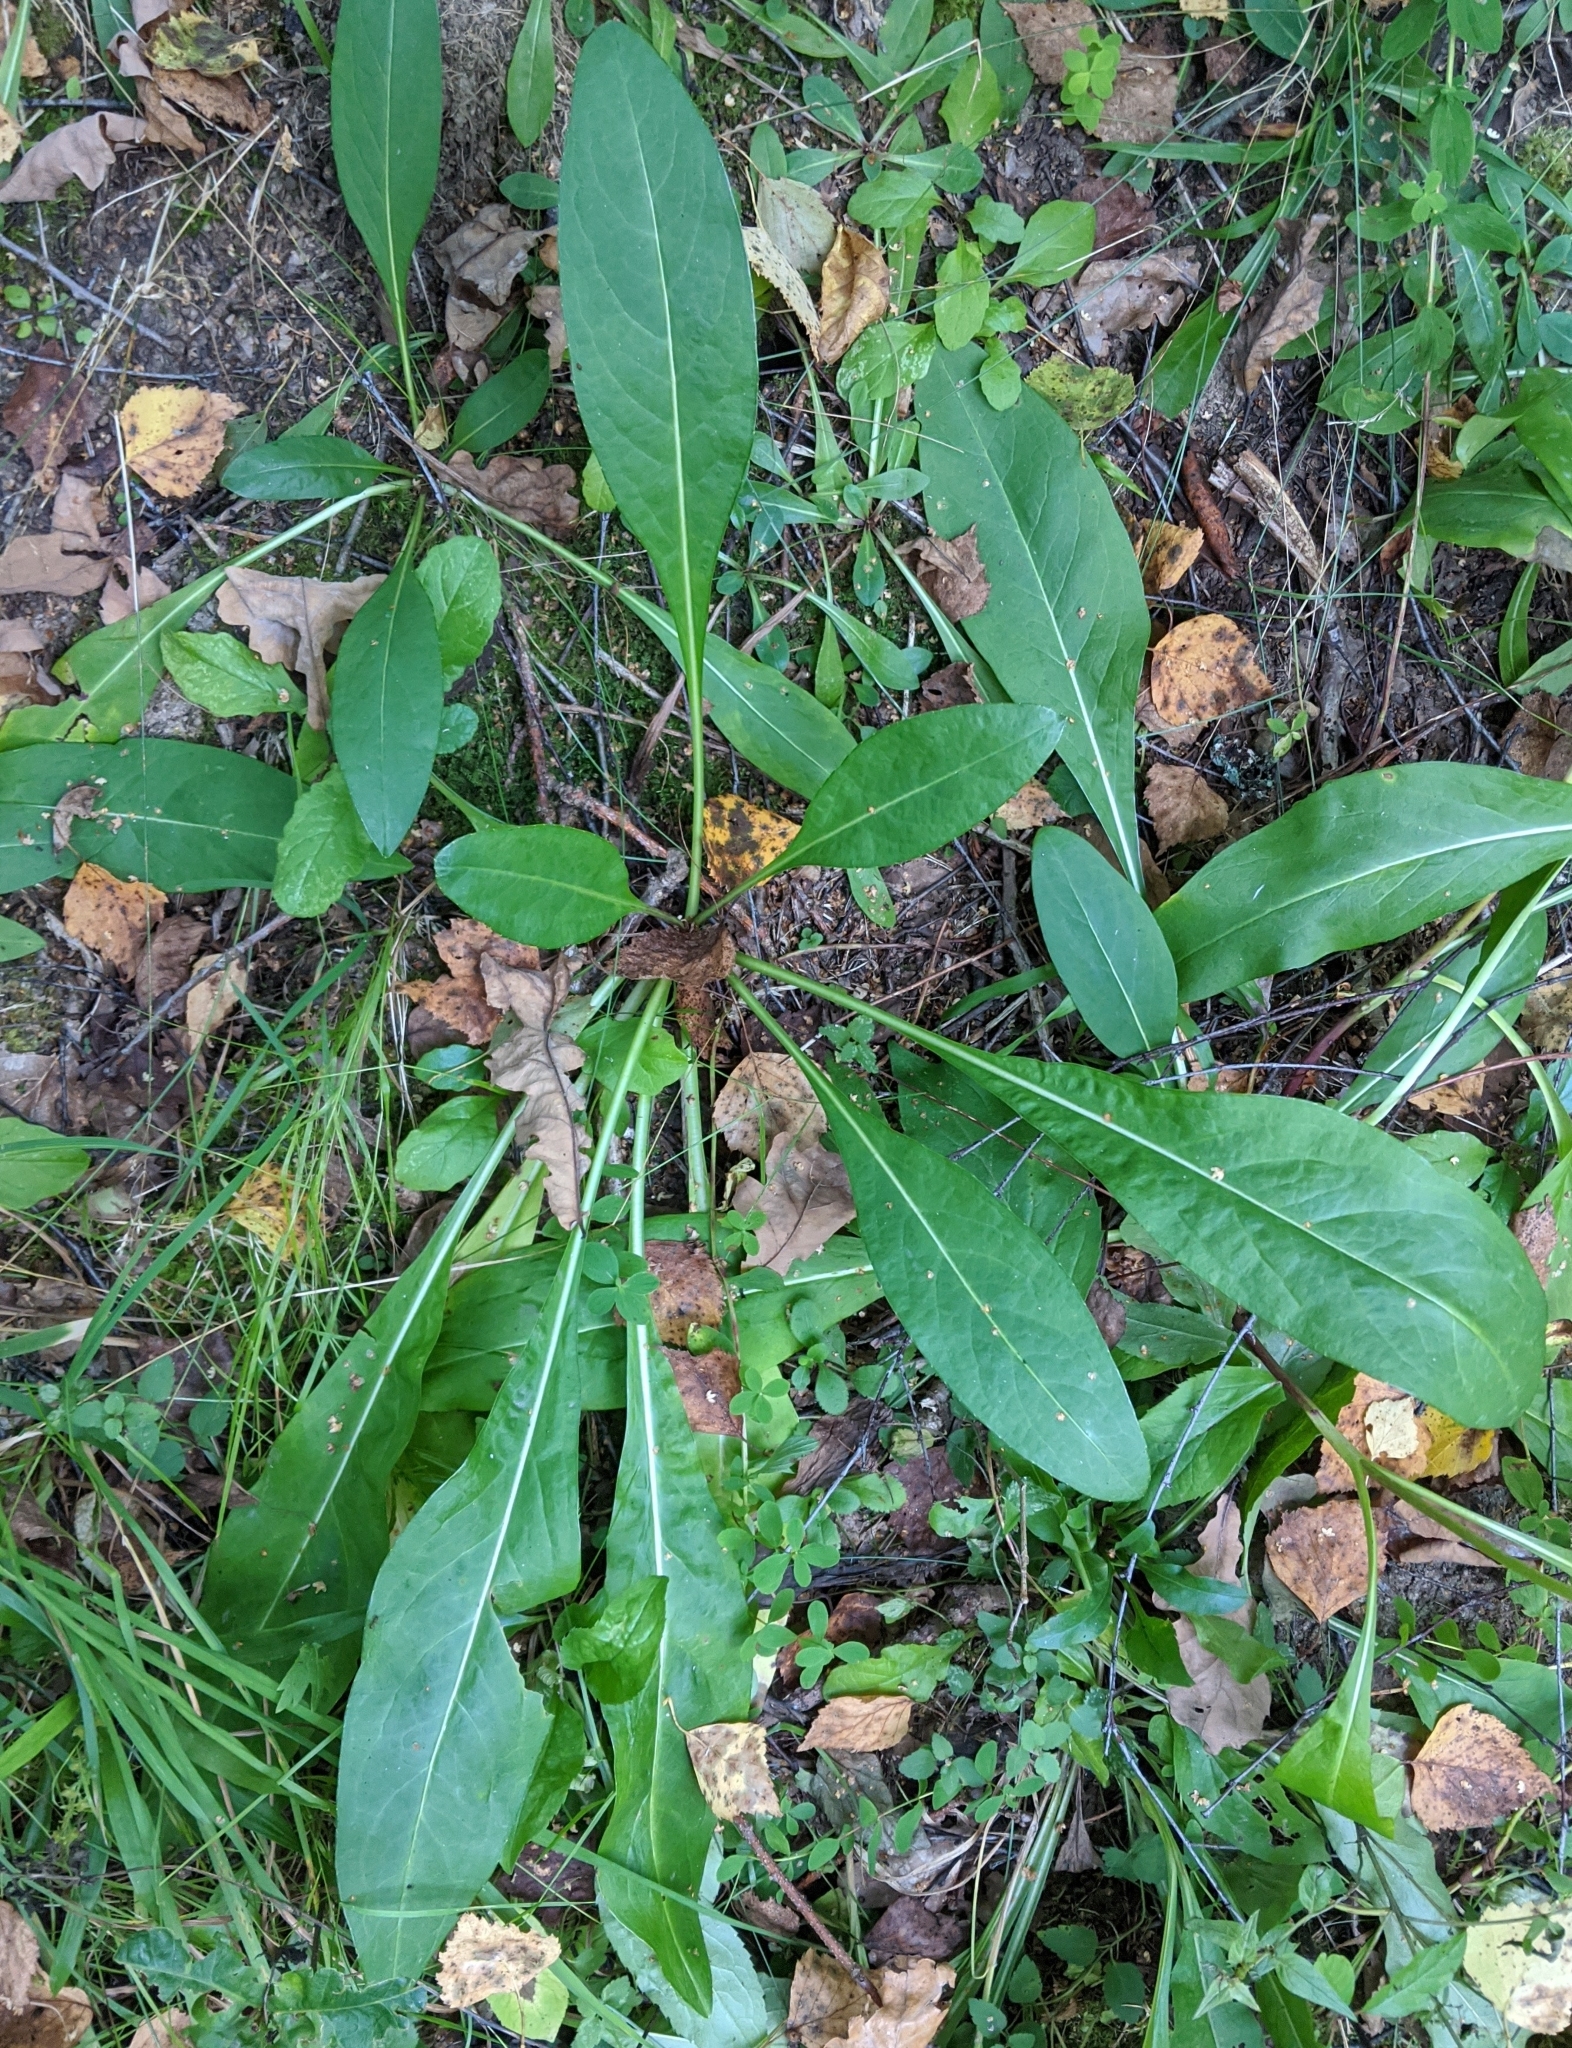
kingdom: Plantae
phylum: Tracheophyta
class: Magnoliopsida
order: Dipsacales
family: Caprifoliaceae
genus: Succisa
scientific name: Succisa pratensis
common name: Devil's-bit
